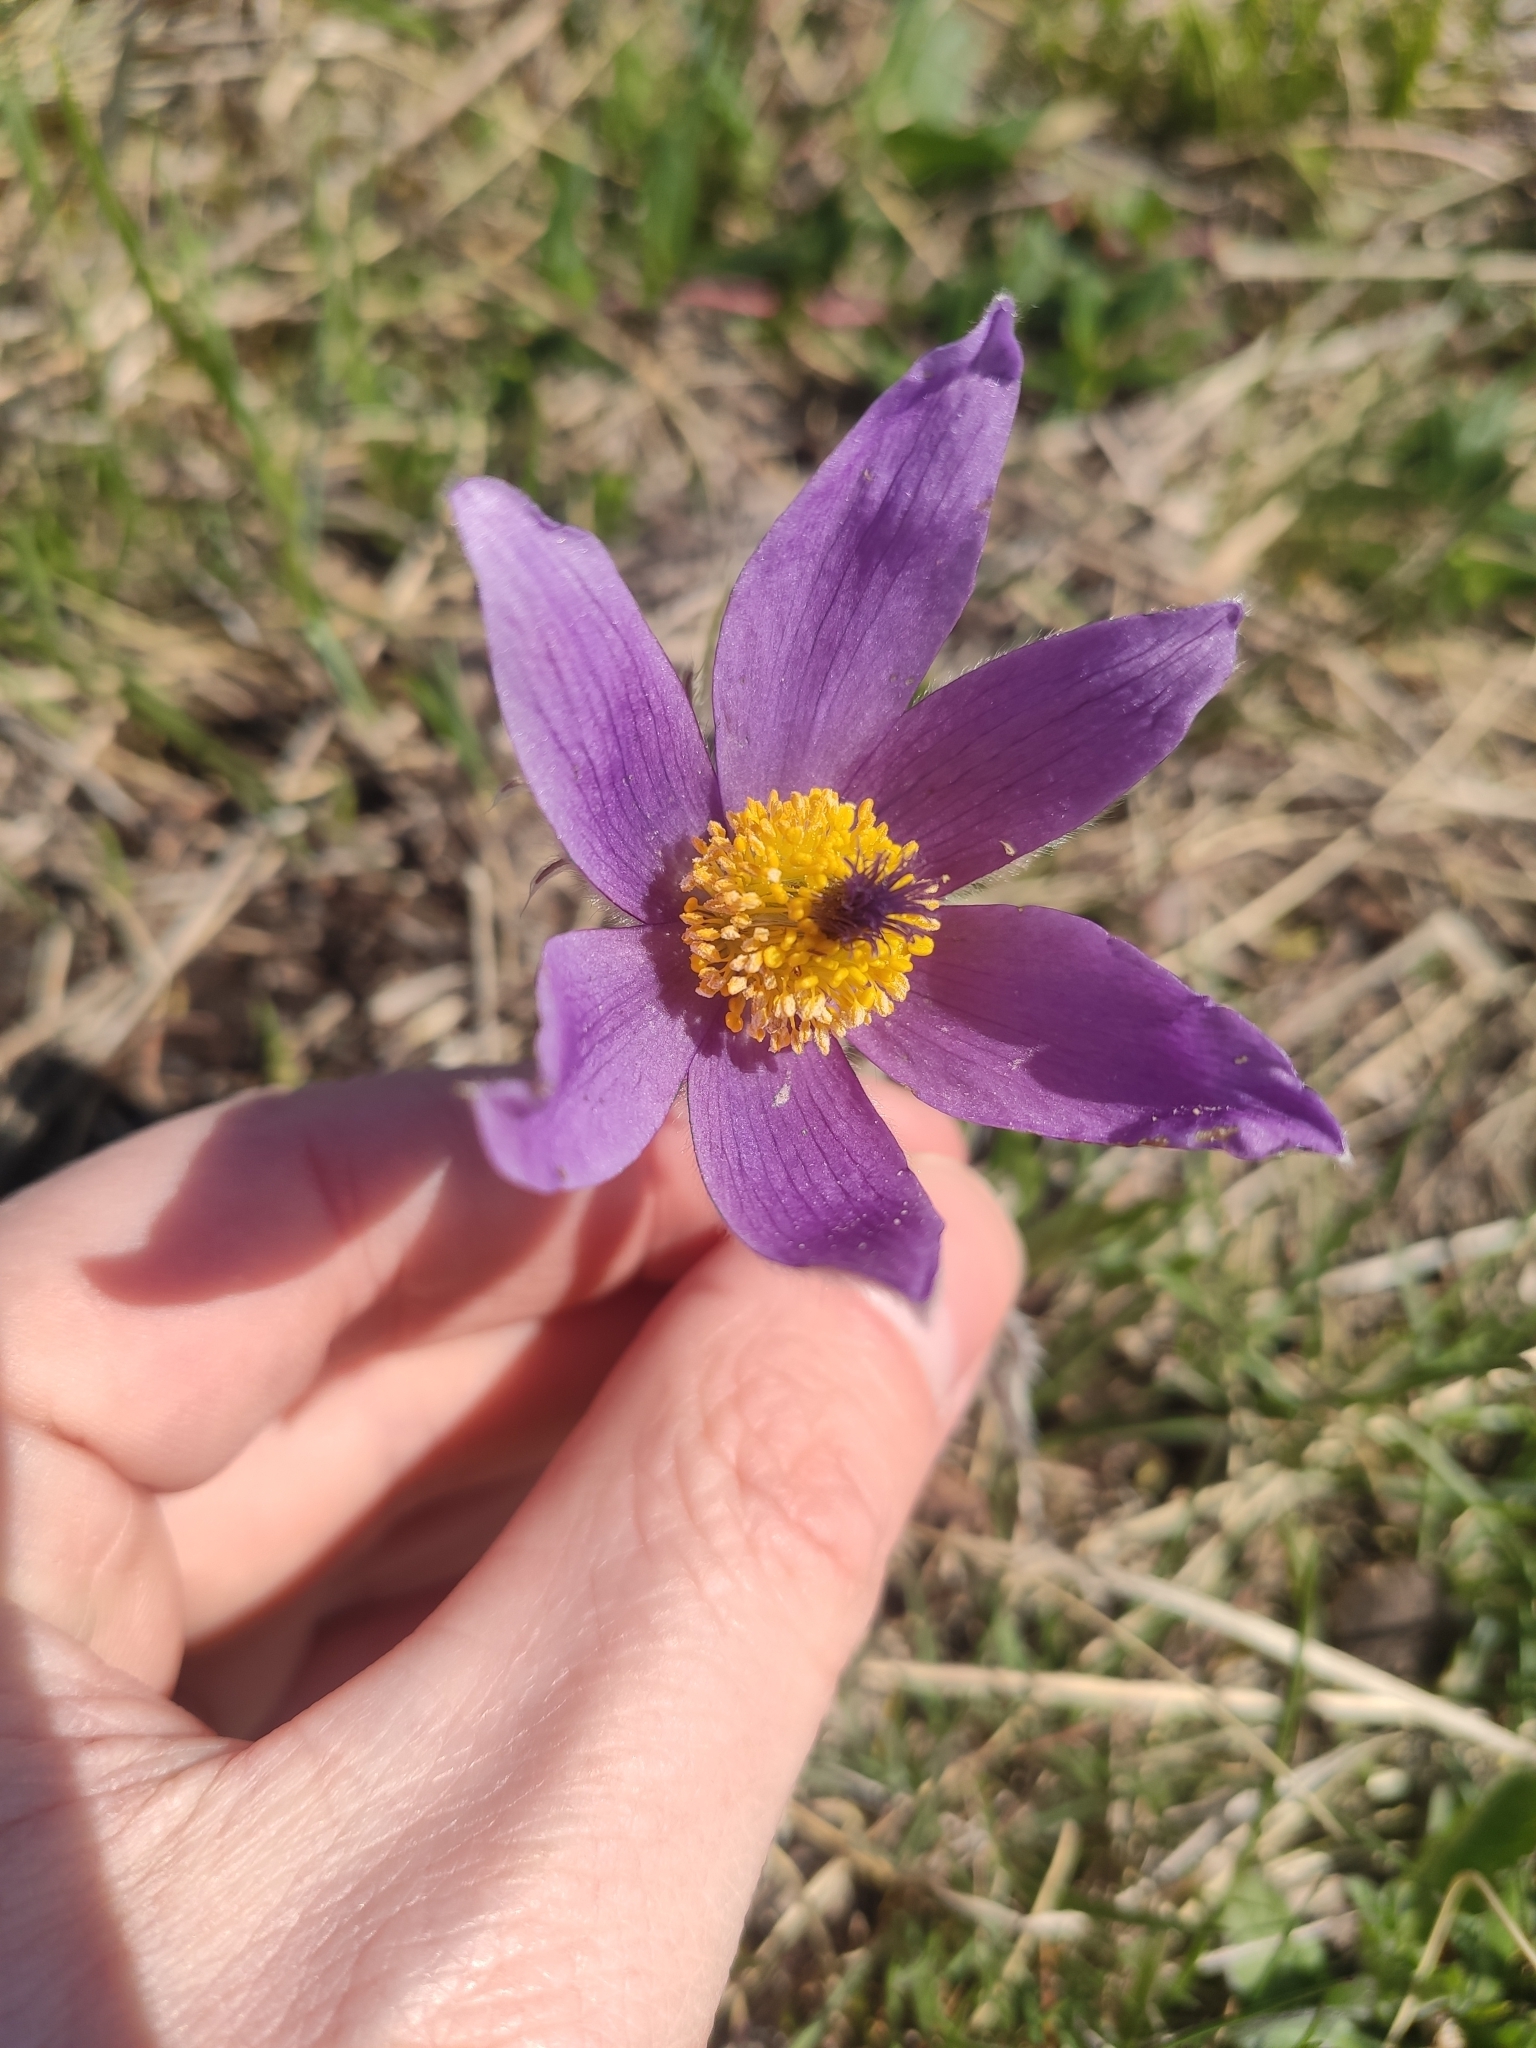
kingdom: Plantae
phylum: Tracheophyta
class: Magnoliopsida
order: Ranunculales
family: Ranunculaceae
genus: Pulsatilla
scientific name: Pulsatilla grandis
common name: Greater pasque flower
